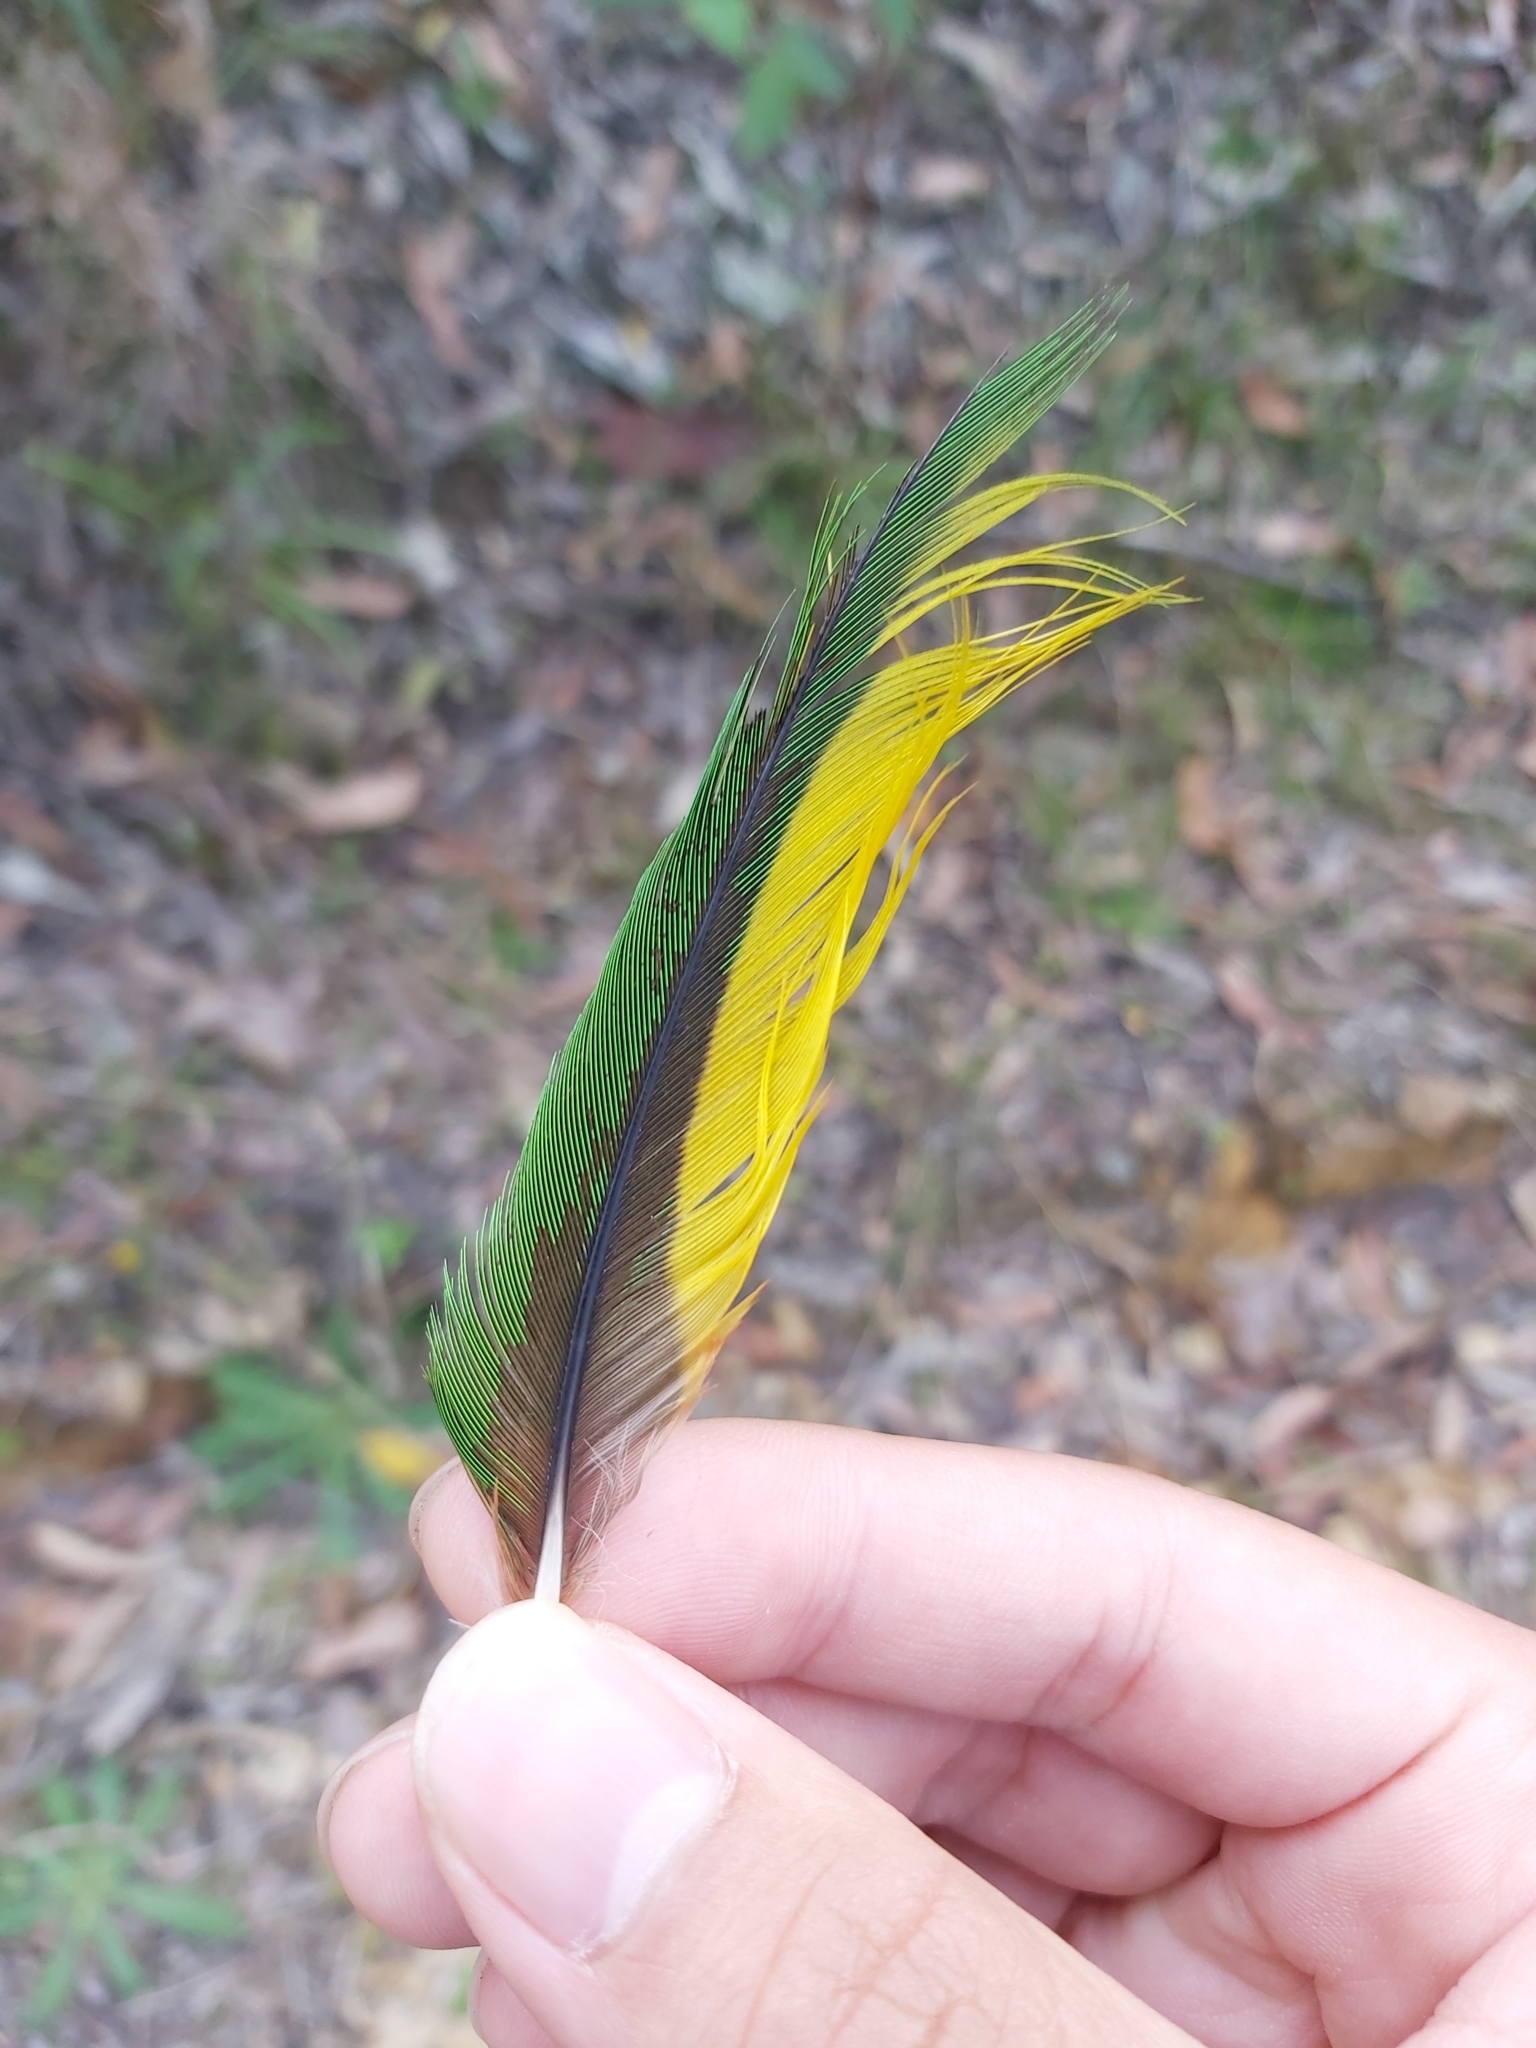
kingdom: Animalia
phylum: Chordata
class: Aves
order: Psittaciformes
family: Psittacidae
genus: Trichoglossus
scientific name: Trichoglossus haematodus
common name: Coconut lorikeet
